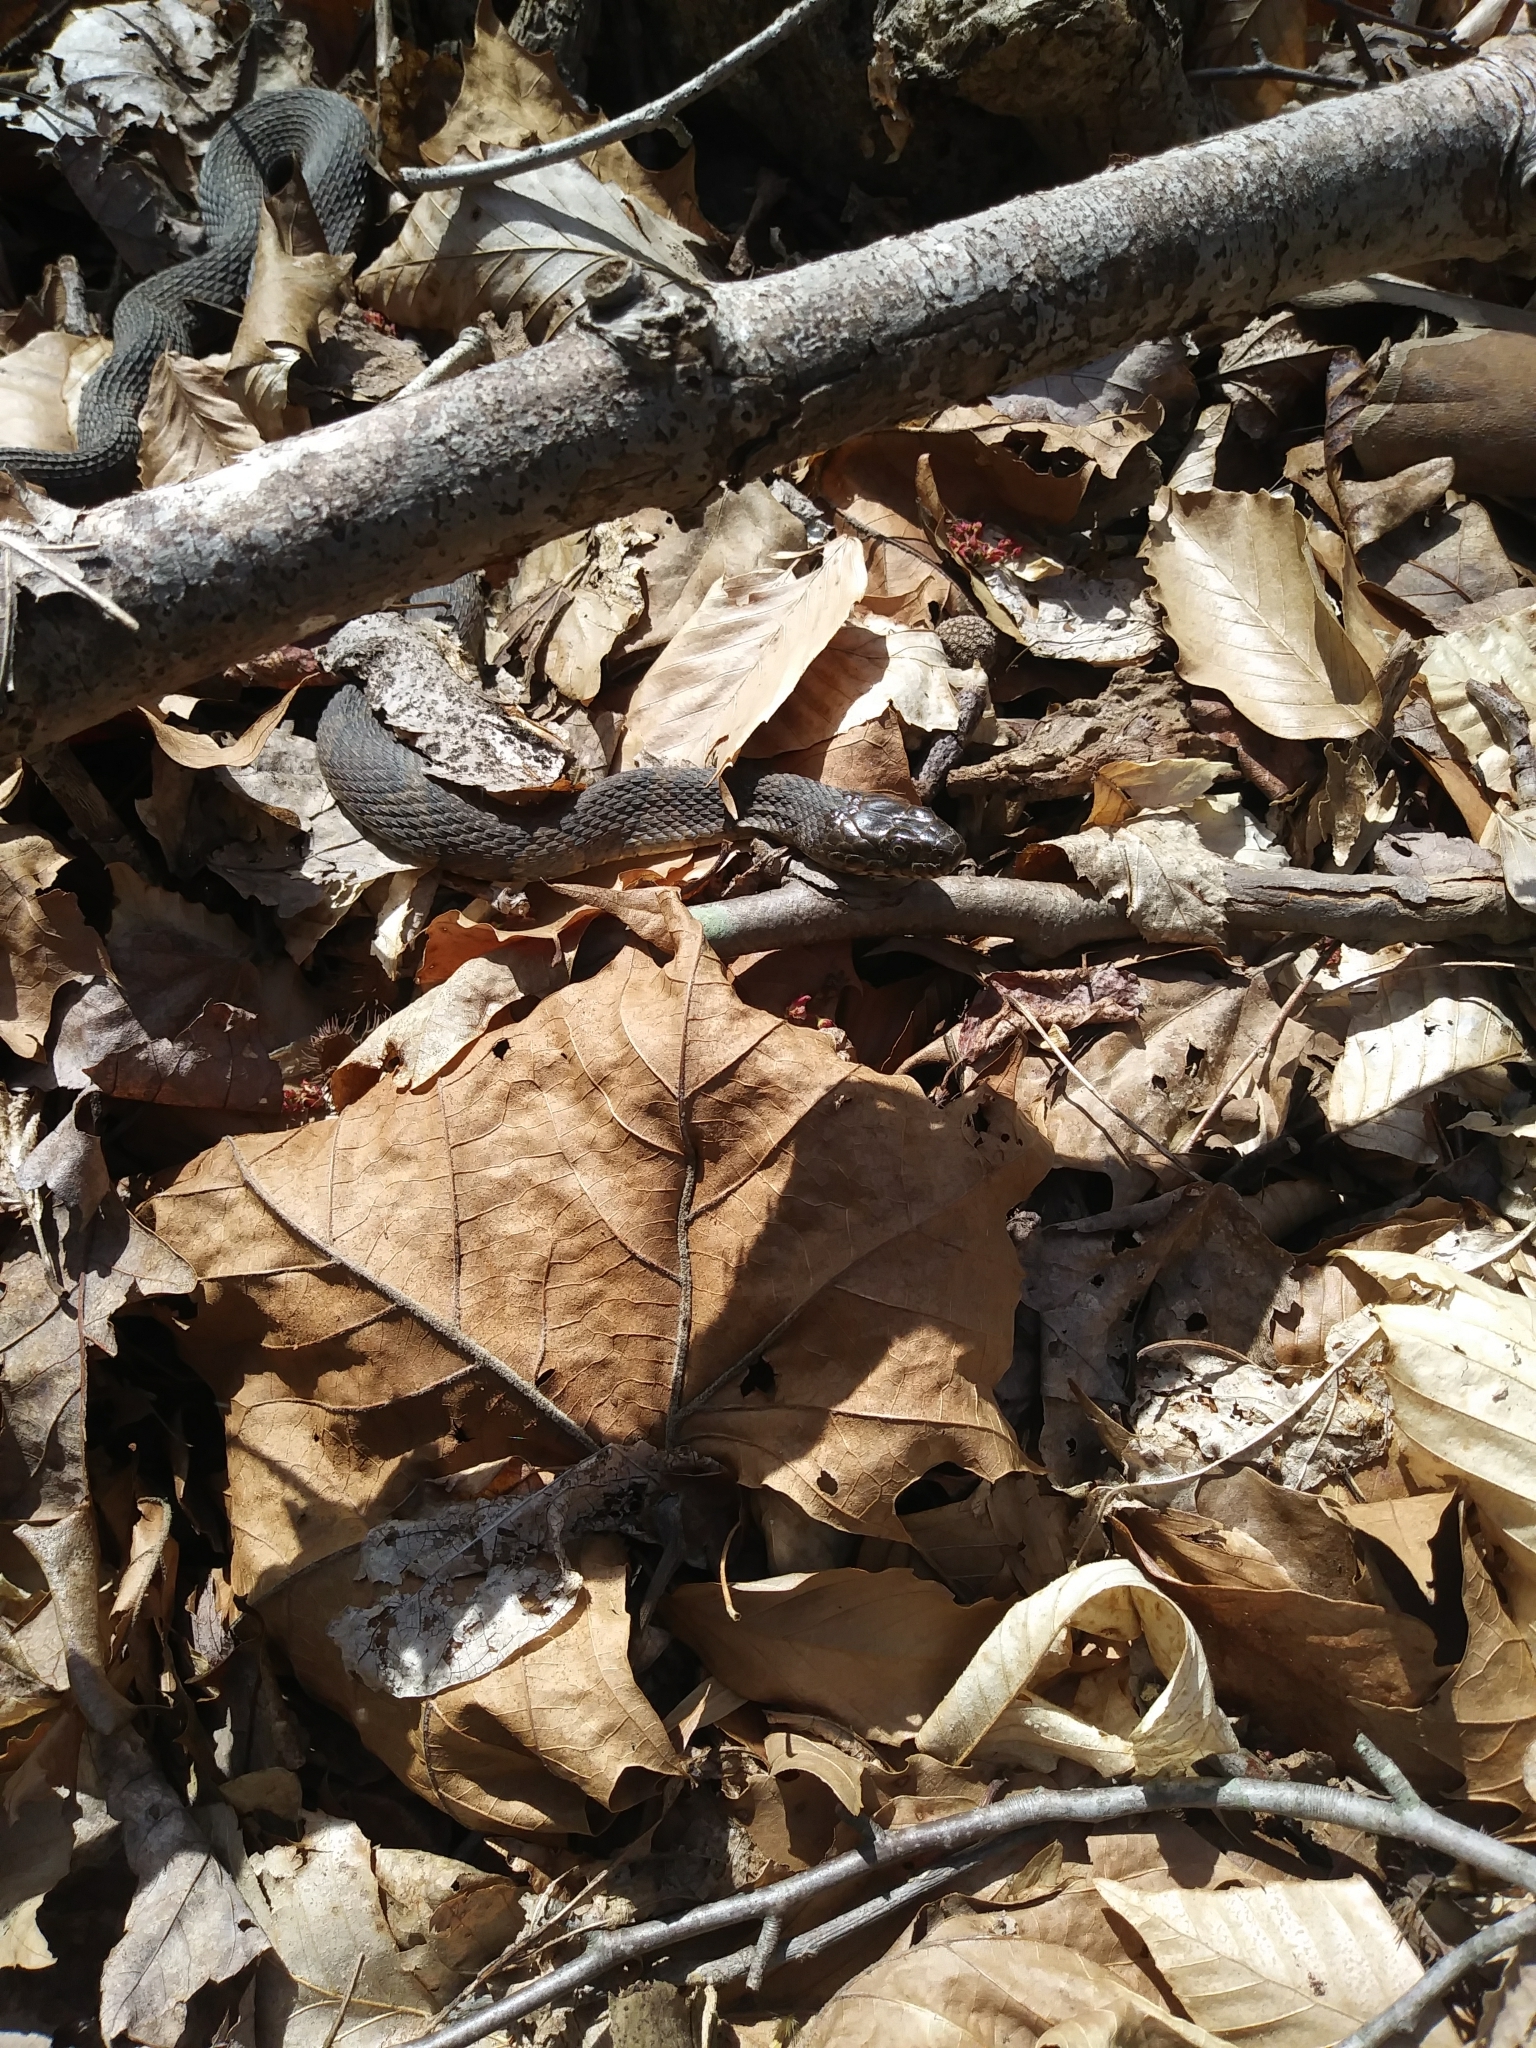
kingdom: Animalia
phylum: Chordata
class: Squamata
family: Colubridae
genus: Nerodia
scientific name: Nerodia sipedon
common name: Northern water snake
